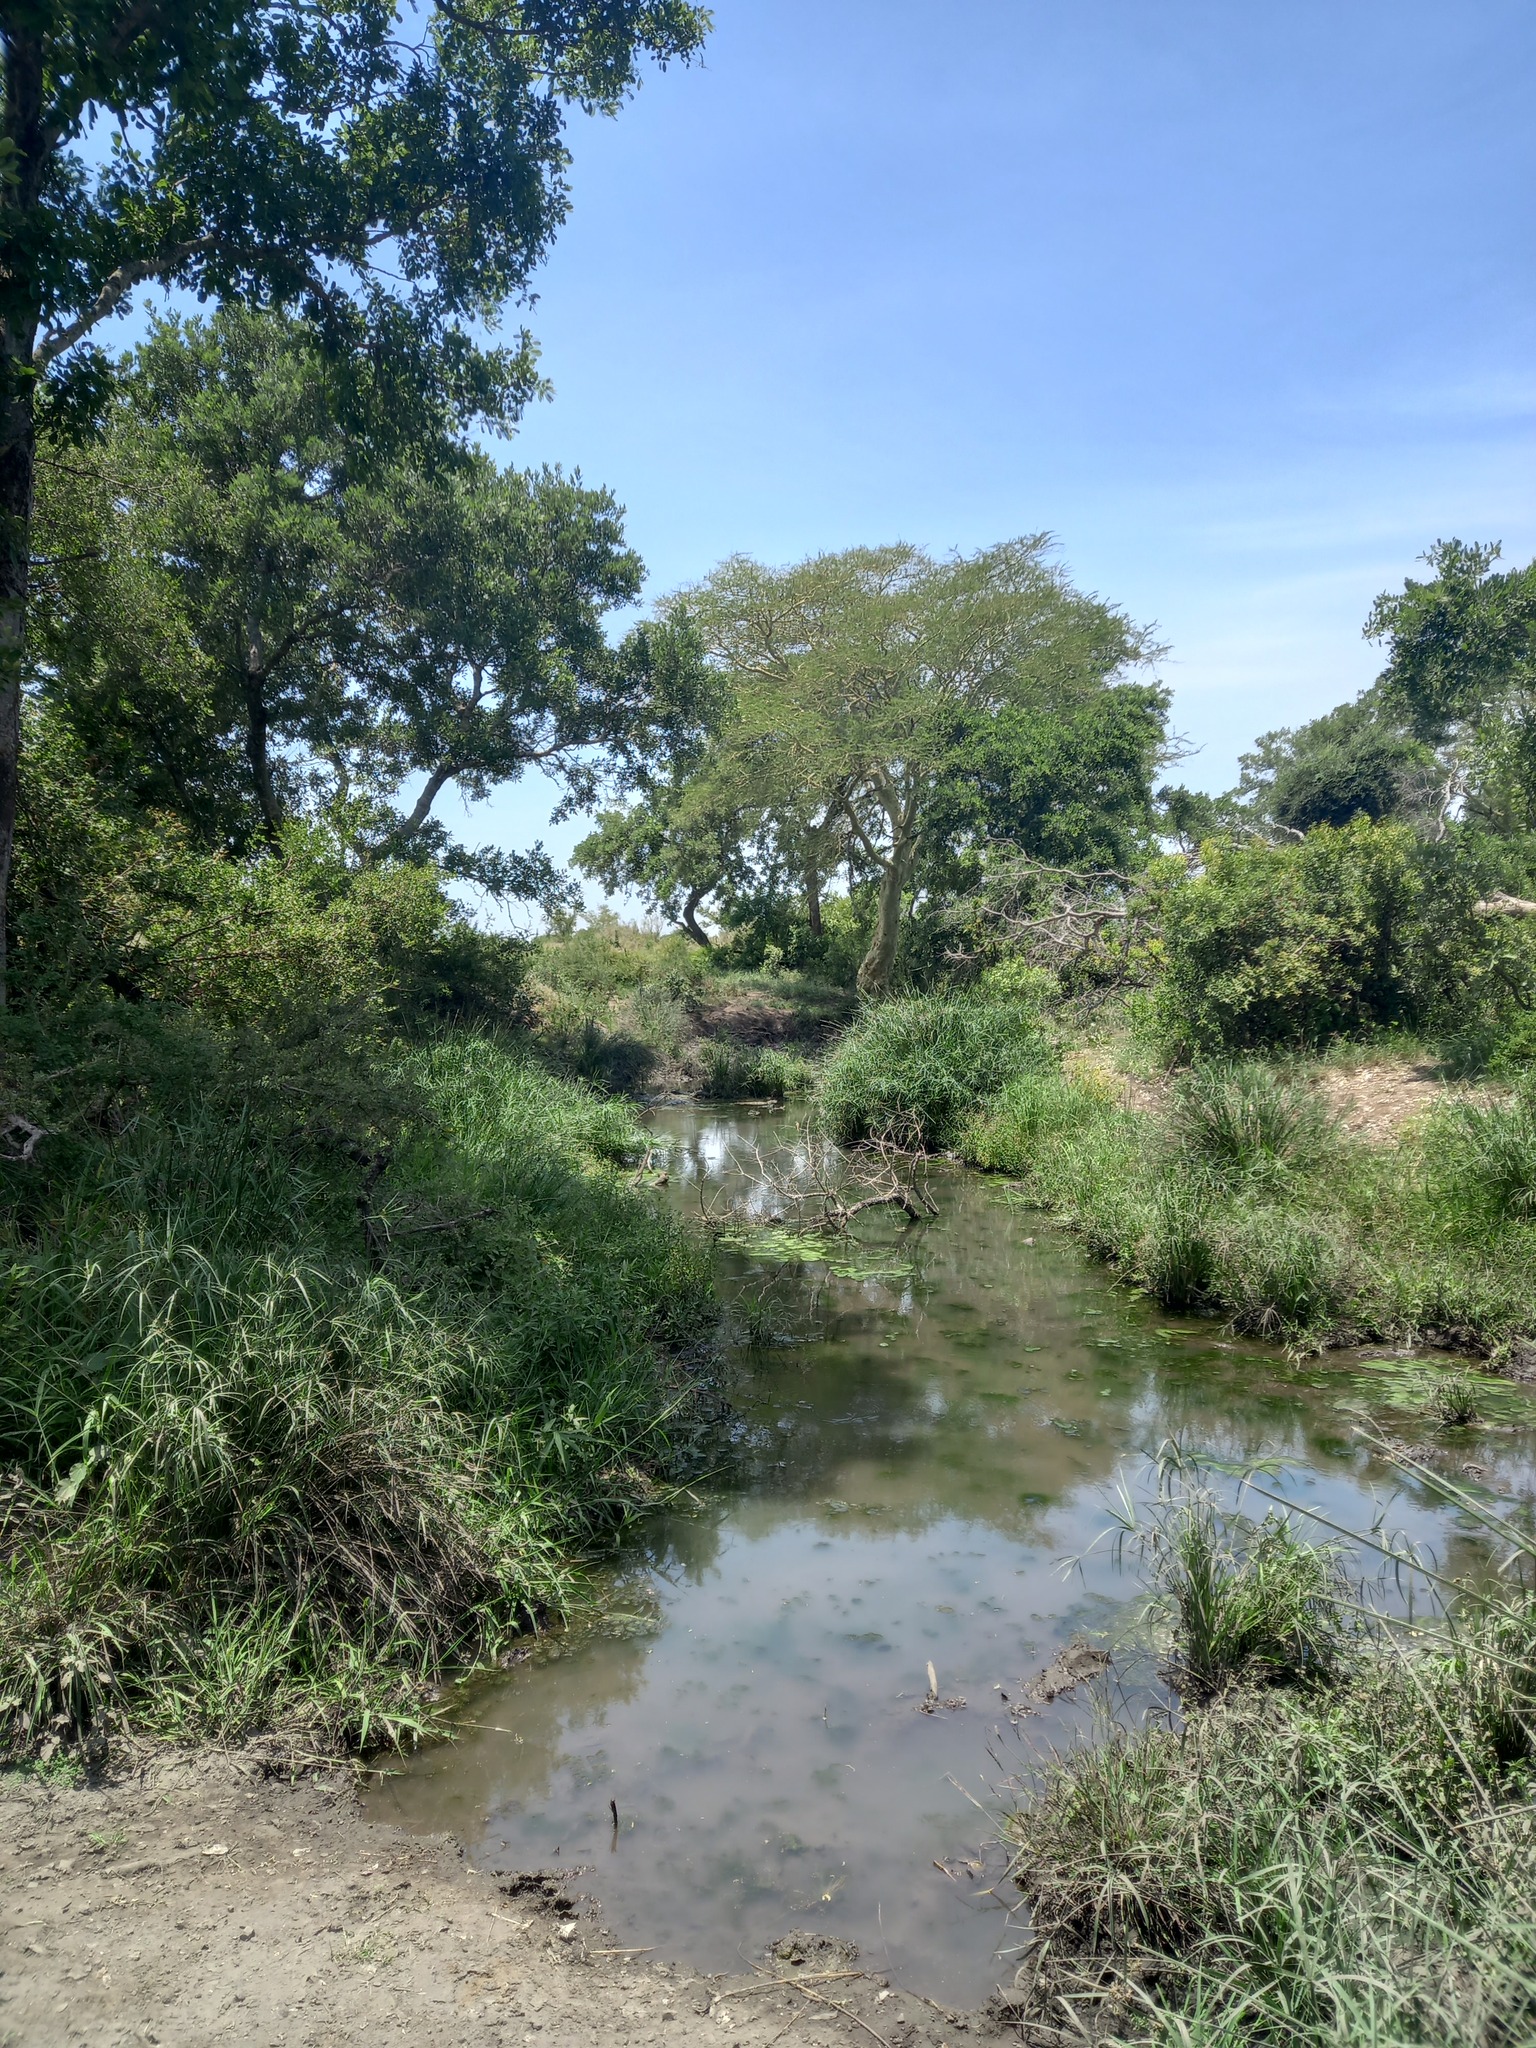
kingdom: Plantae
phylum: Tracheophyta
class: Magnoliopsida
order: Fabales
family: Fabaceae
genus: Vachellia
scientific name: Vachellia xanthophloea
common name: Fever tree
